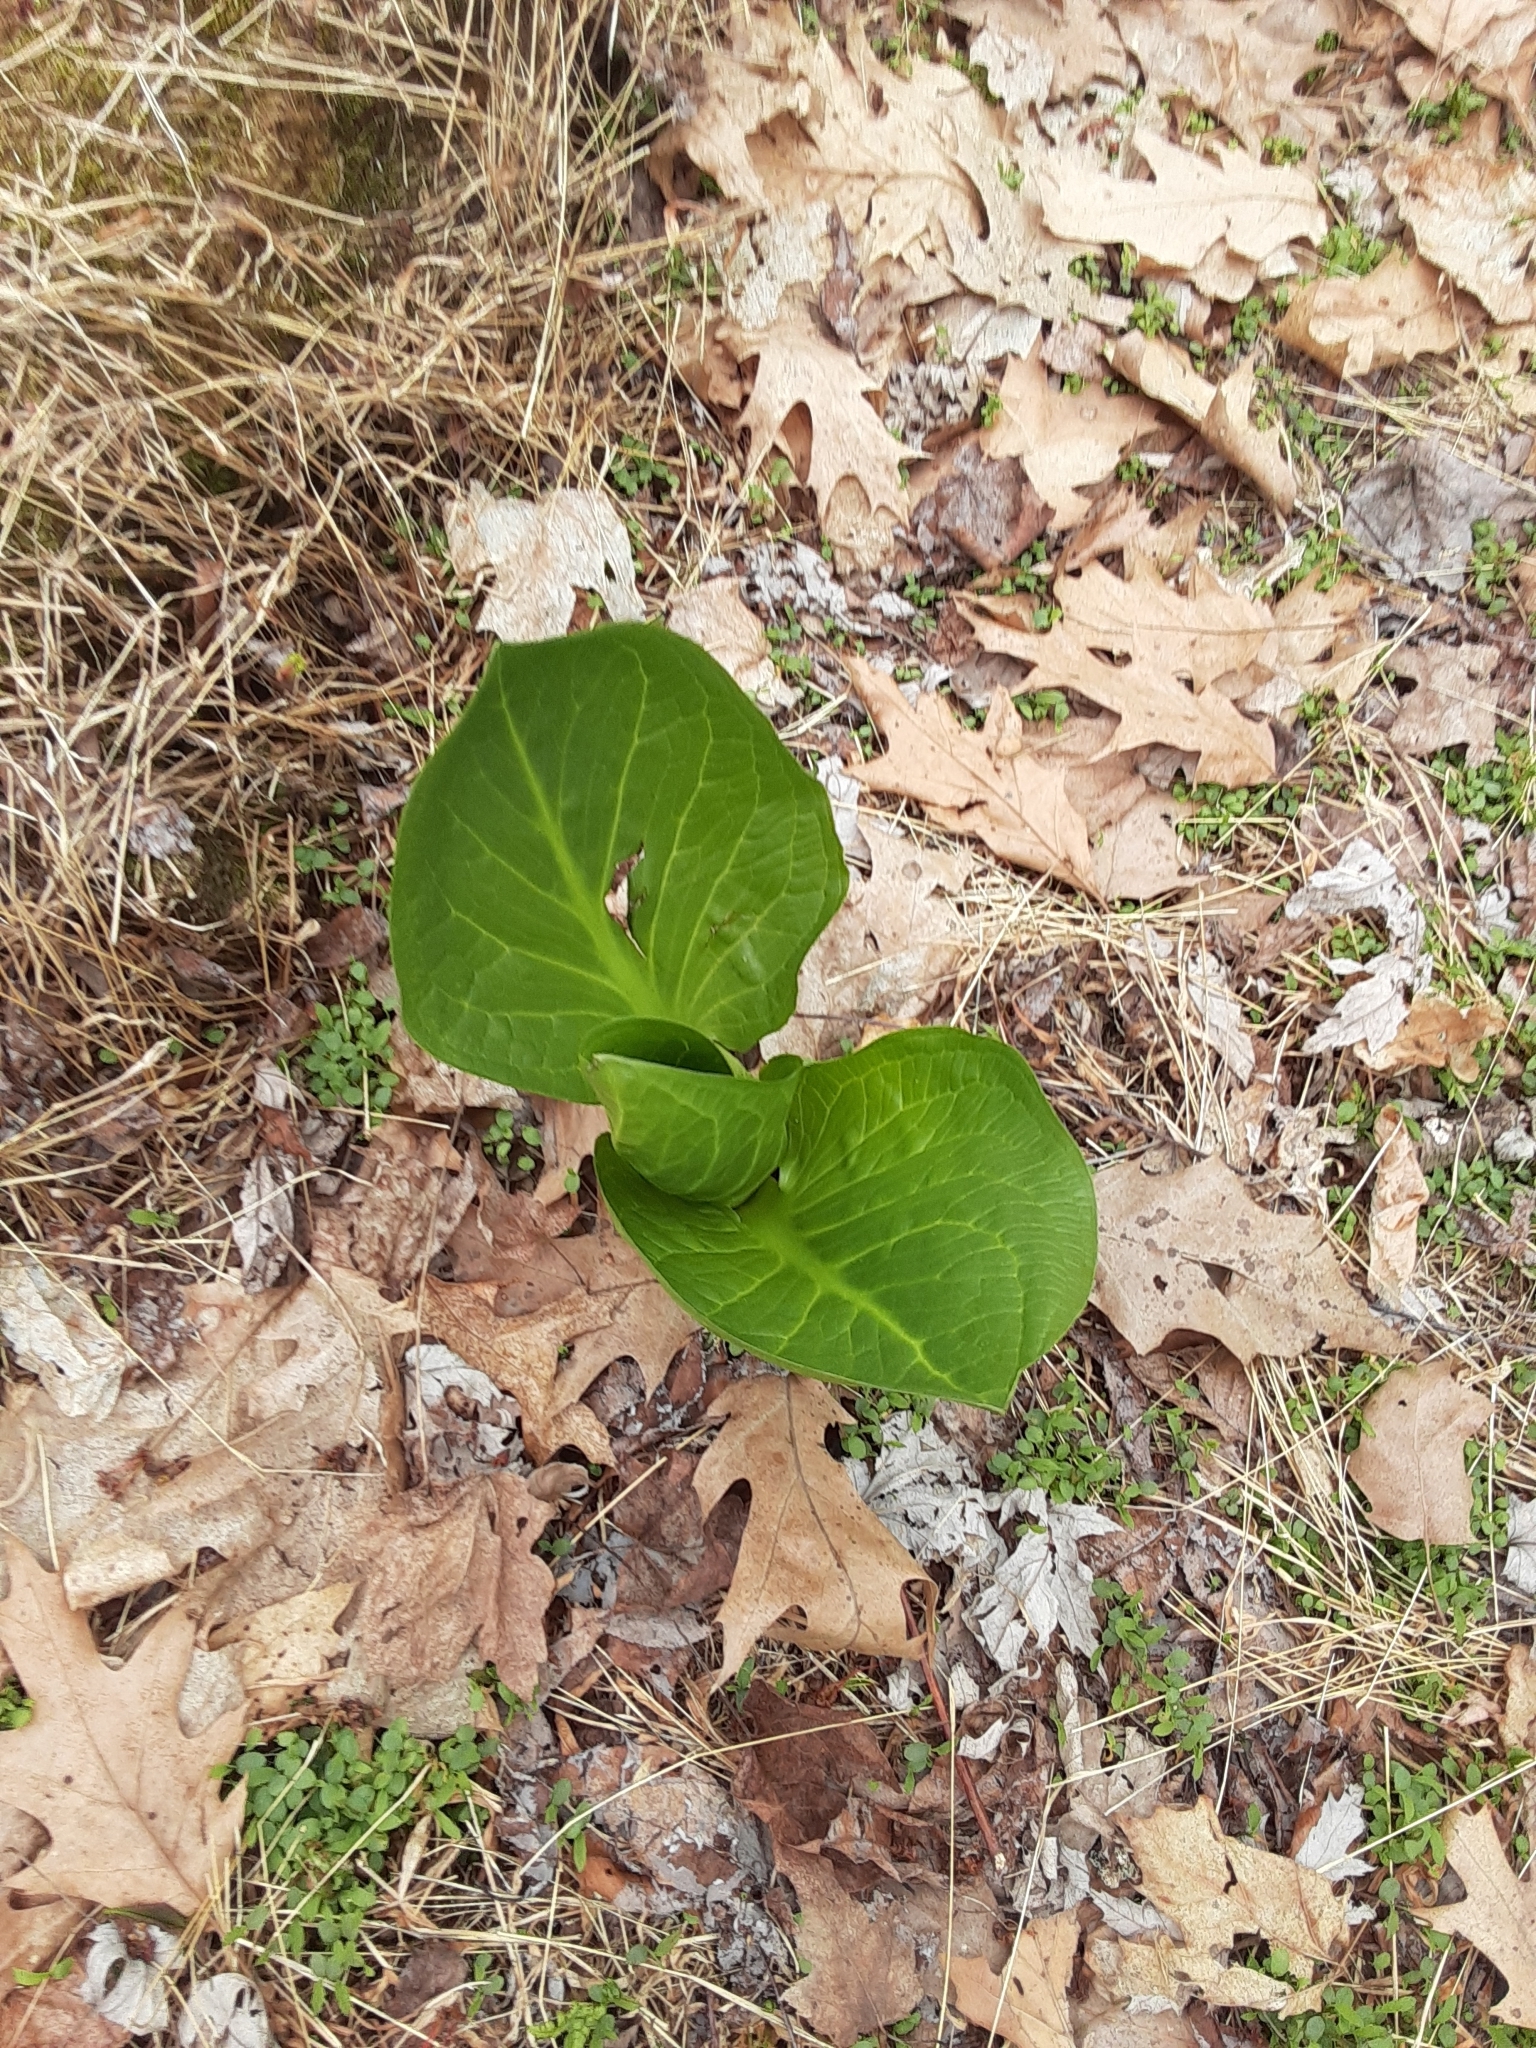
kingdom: Plantae
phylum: Tracheophyta
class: Liliopsida
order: Alismatales
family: Araceae
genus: Symplocarpus
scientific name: Symplocarpus foetidus
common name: Eastern skunk cabbage
